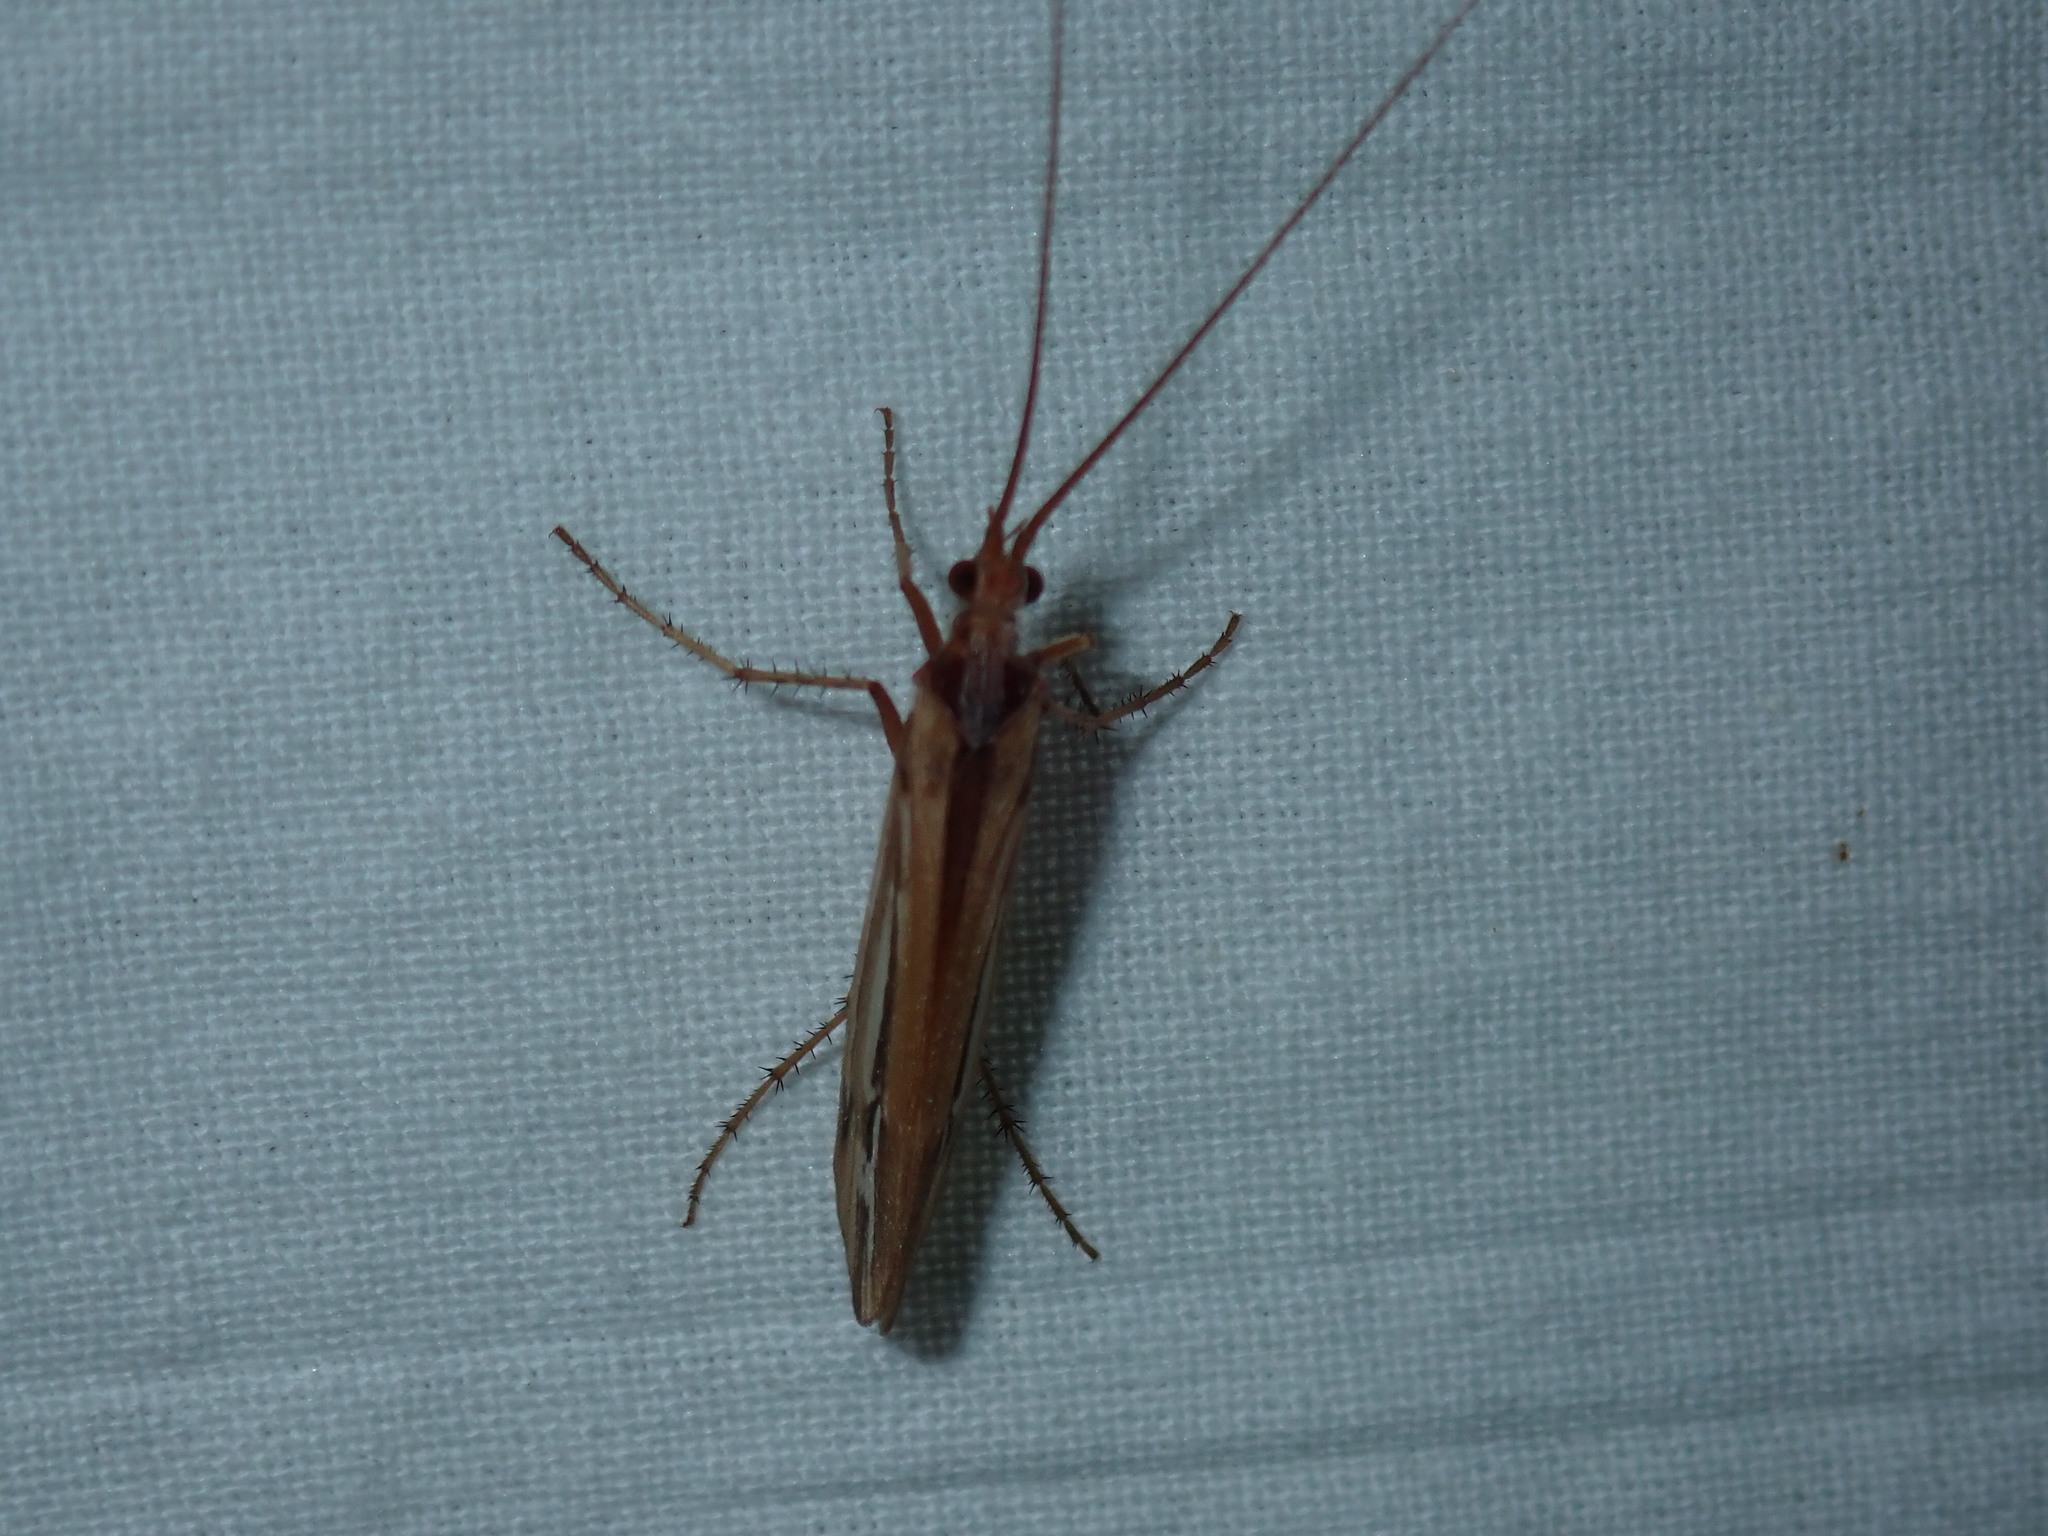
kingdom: Animalia
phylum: Arthropoda
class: Insecta
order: Trichoptera
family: Limnephilidae
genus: Limnephilus
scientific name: Limnephilus ornatus
